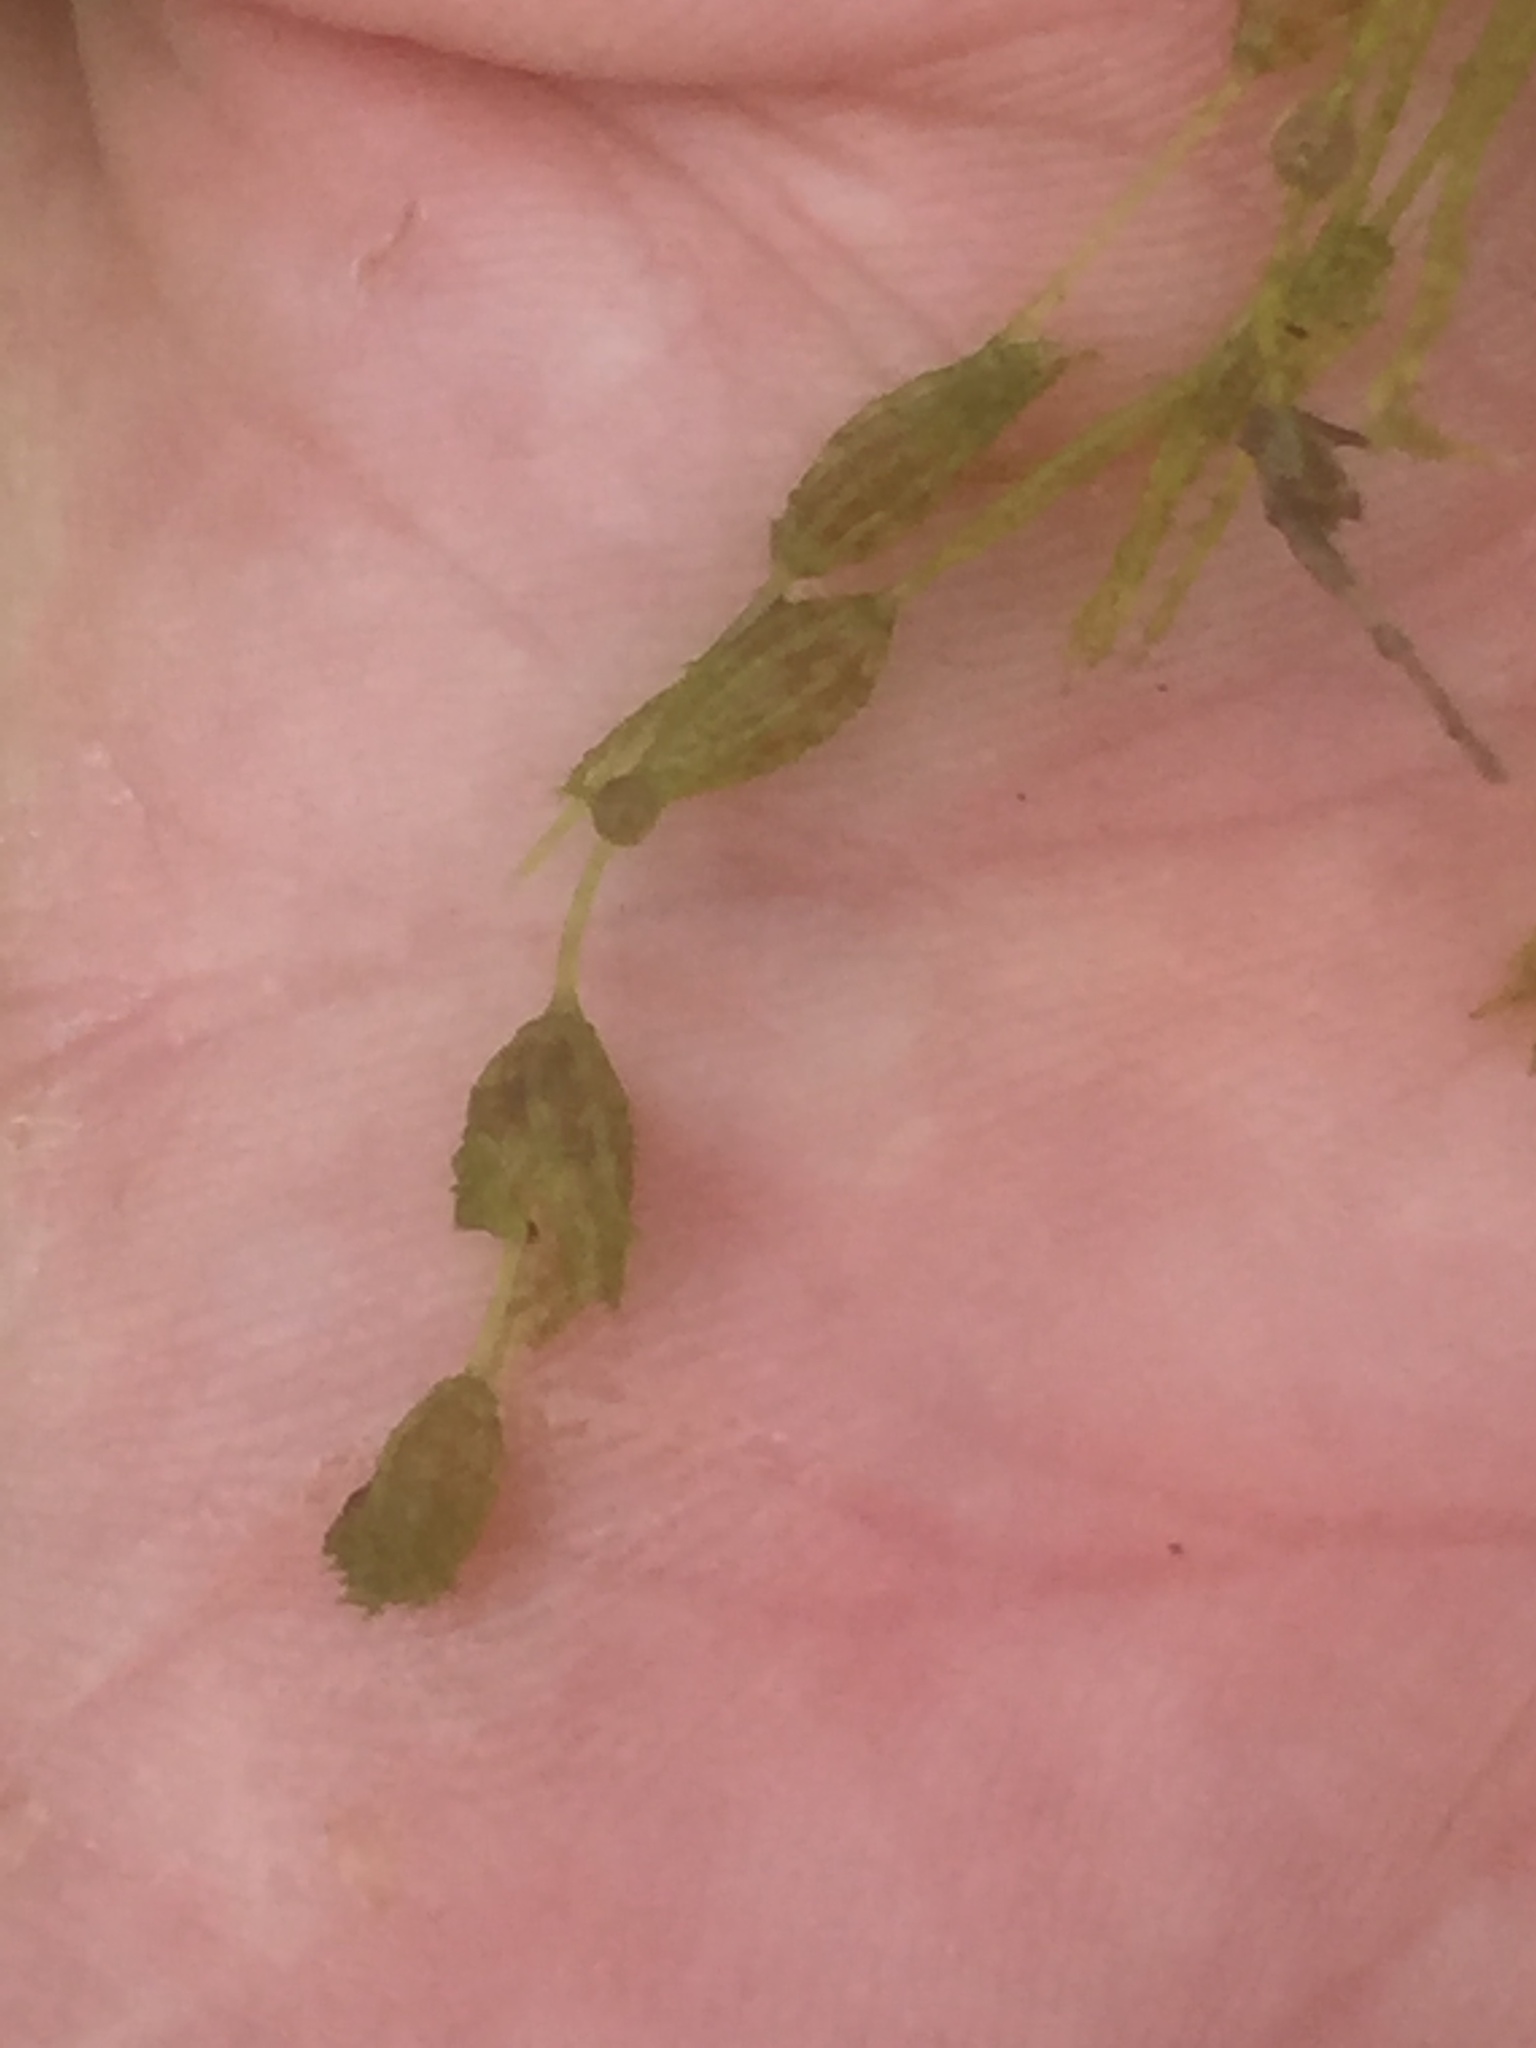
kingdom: Plantae
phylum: Charophyta
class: Charophyceae
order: Charales
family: Characeae
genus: Chara
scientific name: Chara virgata
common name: Delicate stonewort
